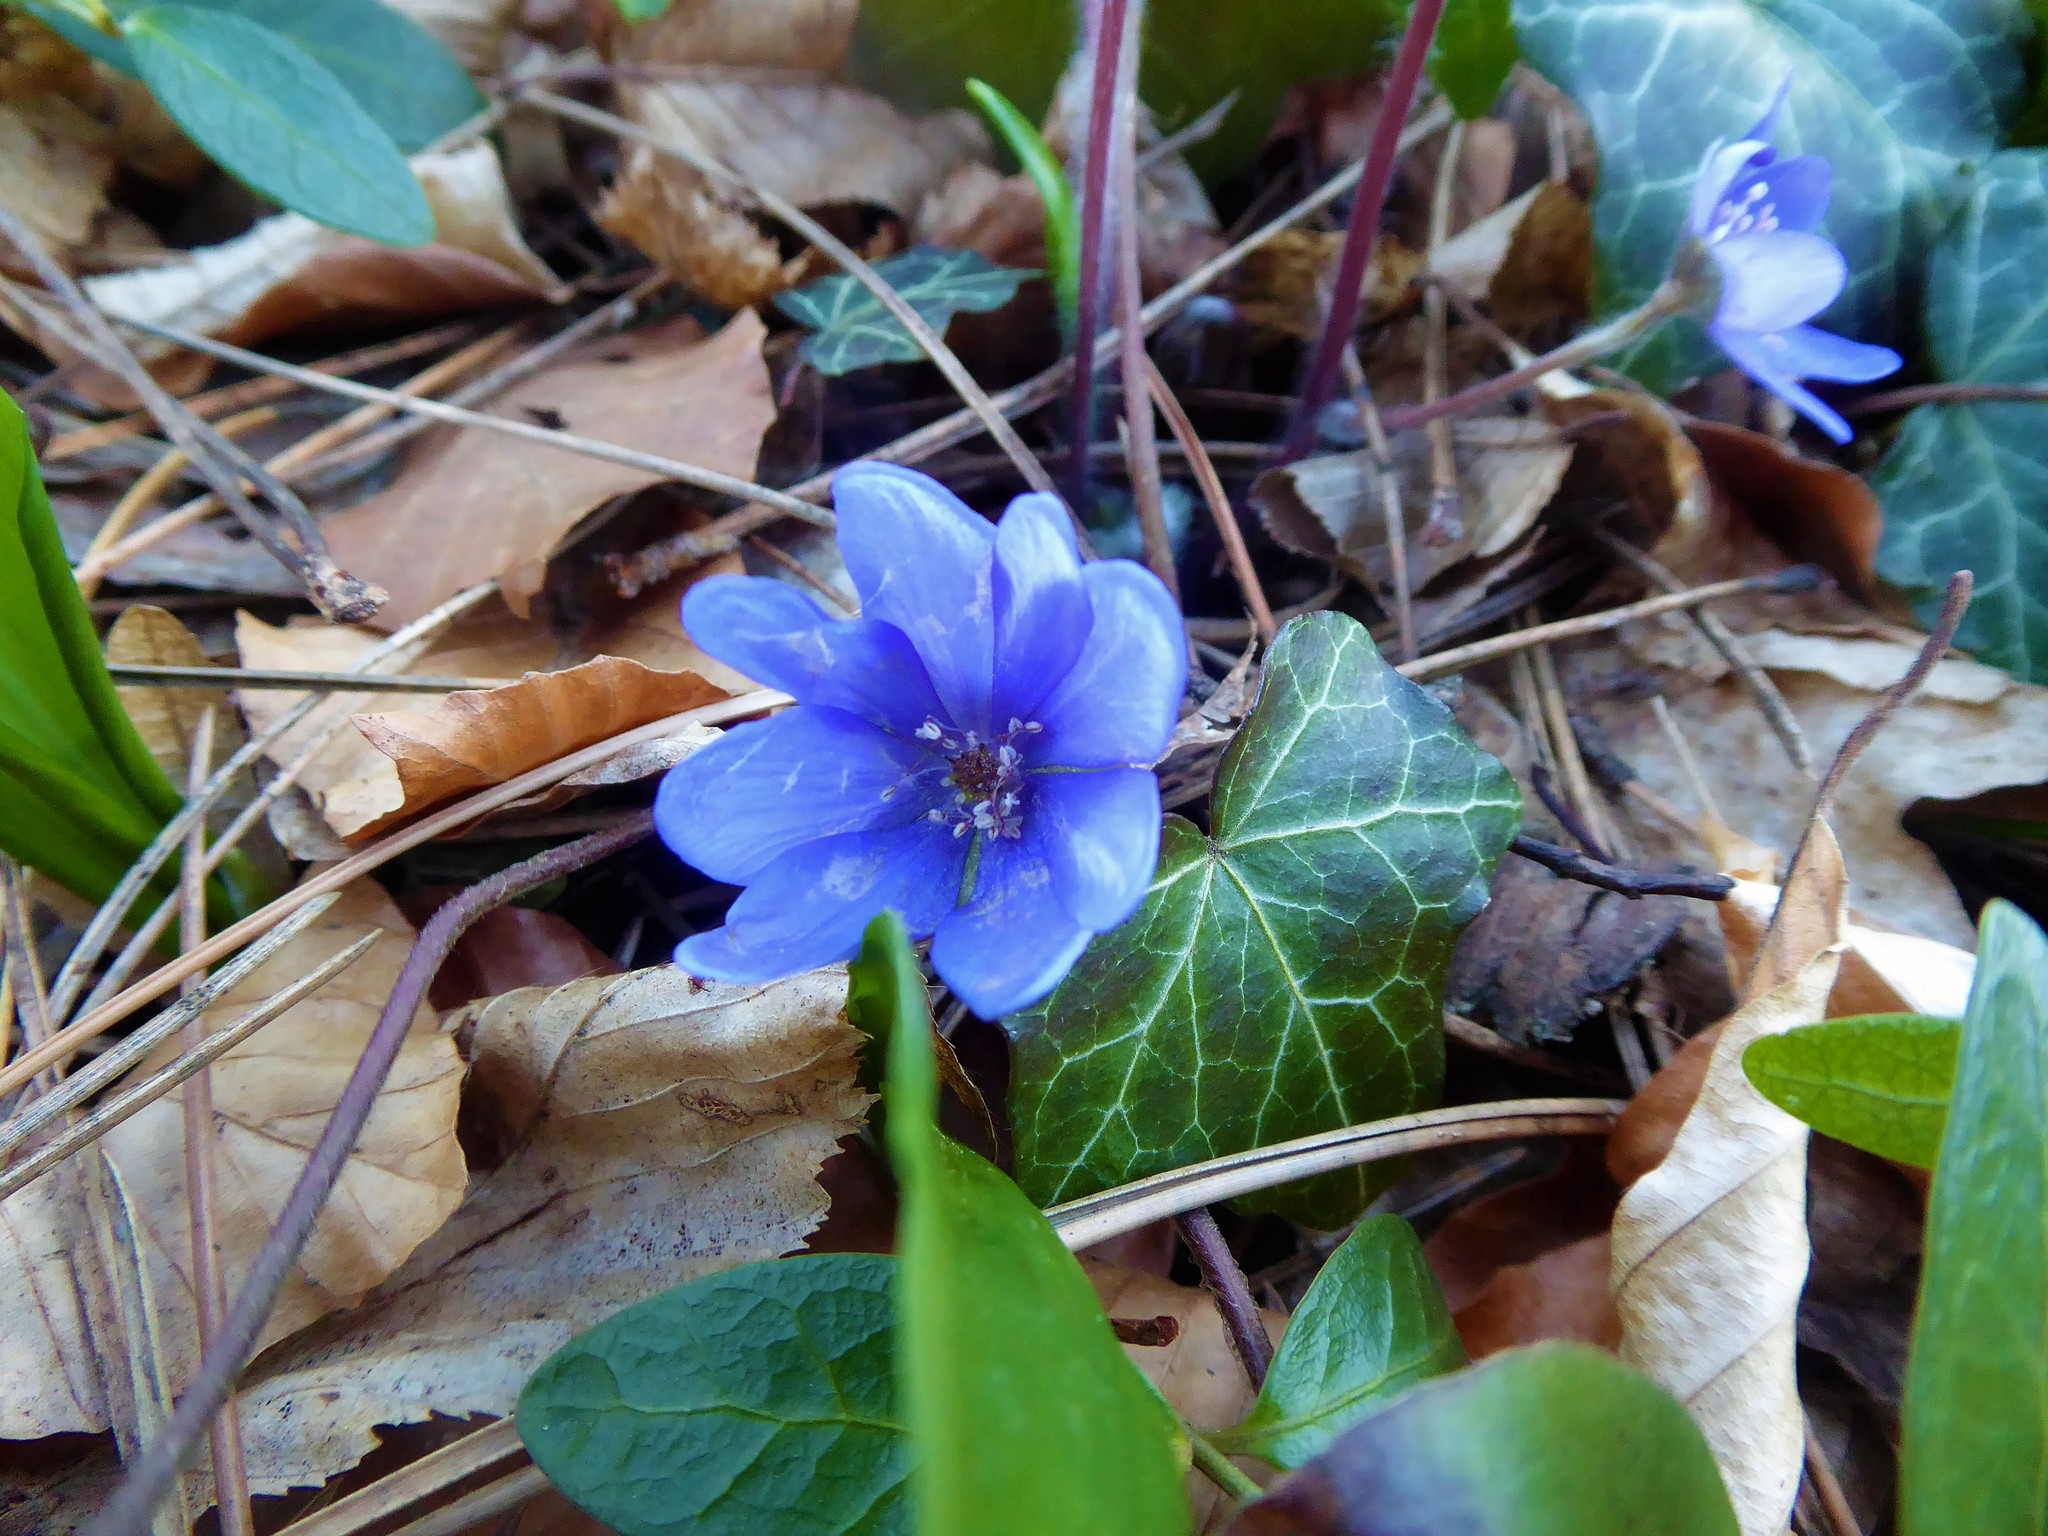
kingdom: Plantae
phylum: Tracheophyta
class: Magnoliopsida
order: Ranunculales
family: Ranunculaceae
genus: Hepatica
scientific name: Hepatica nobilis
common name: Liverleaf
